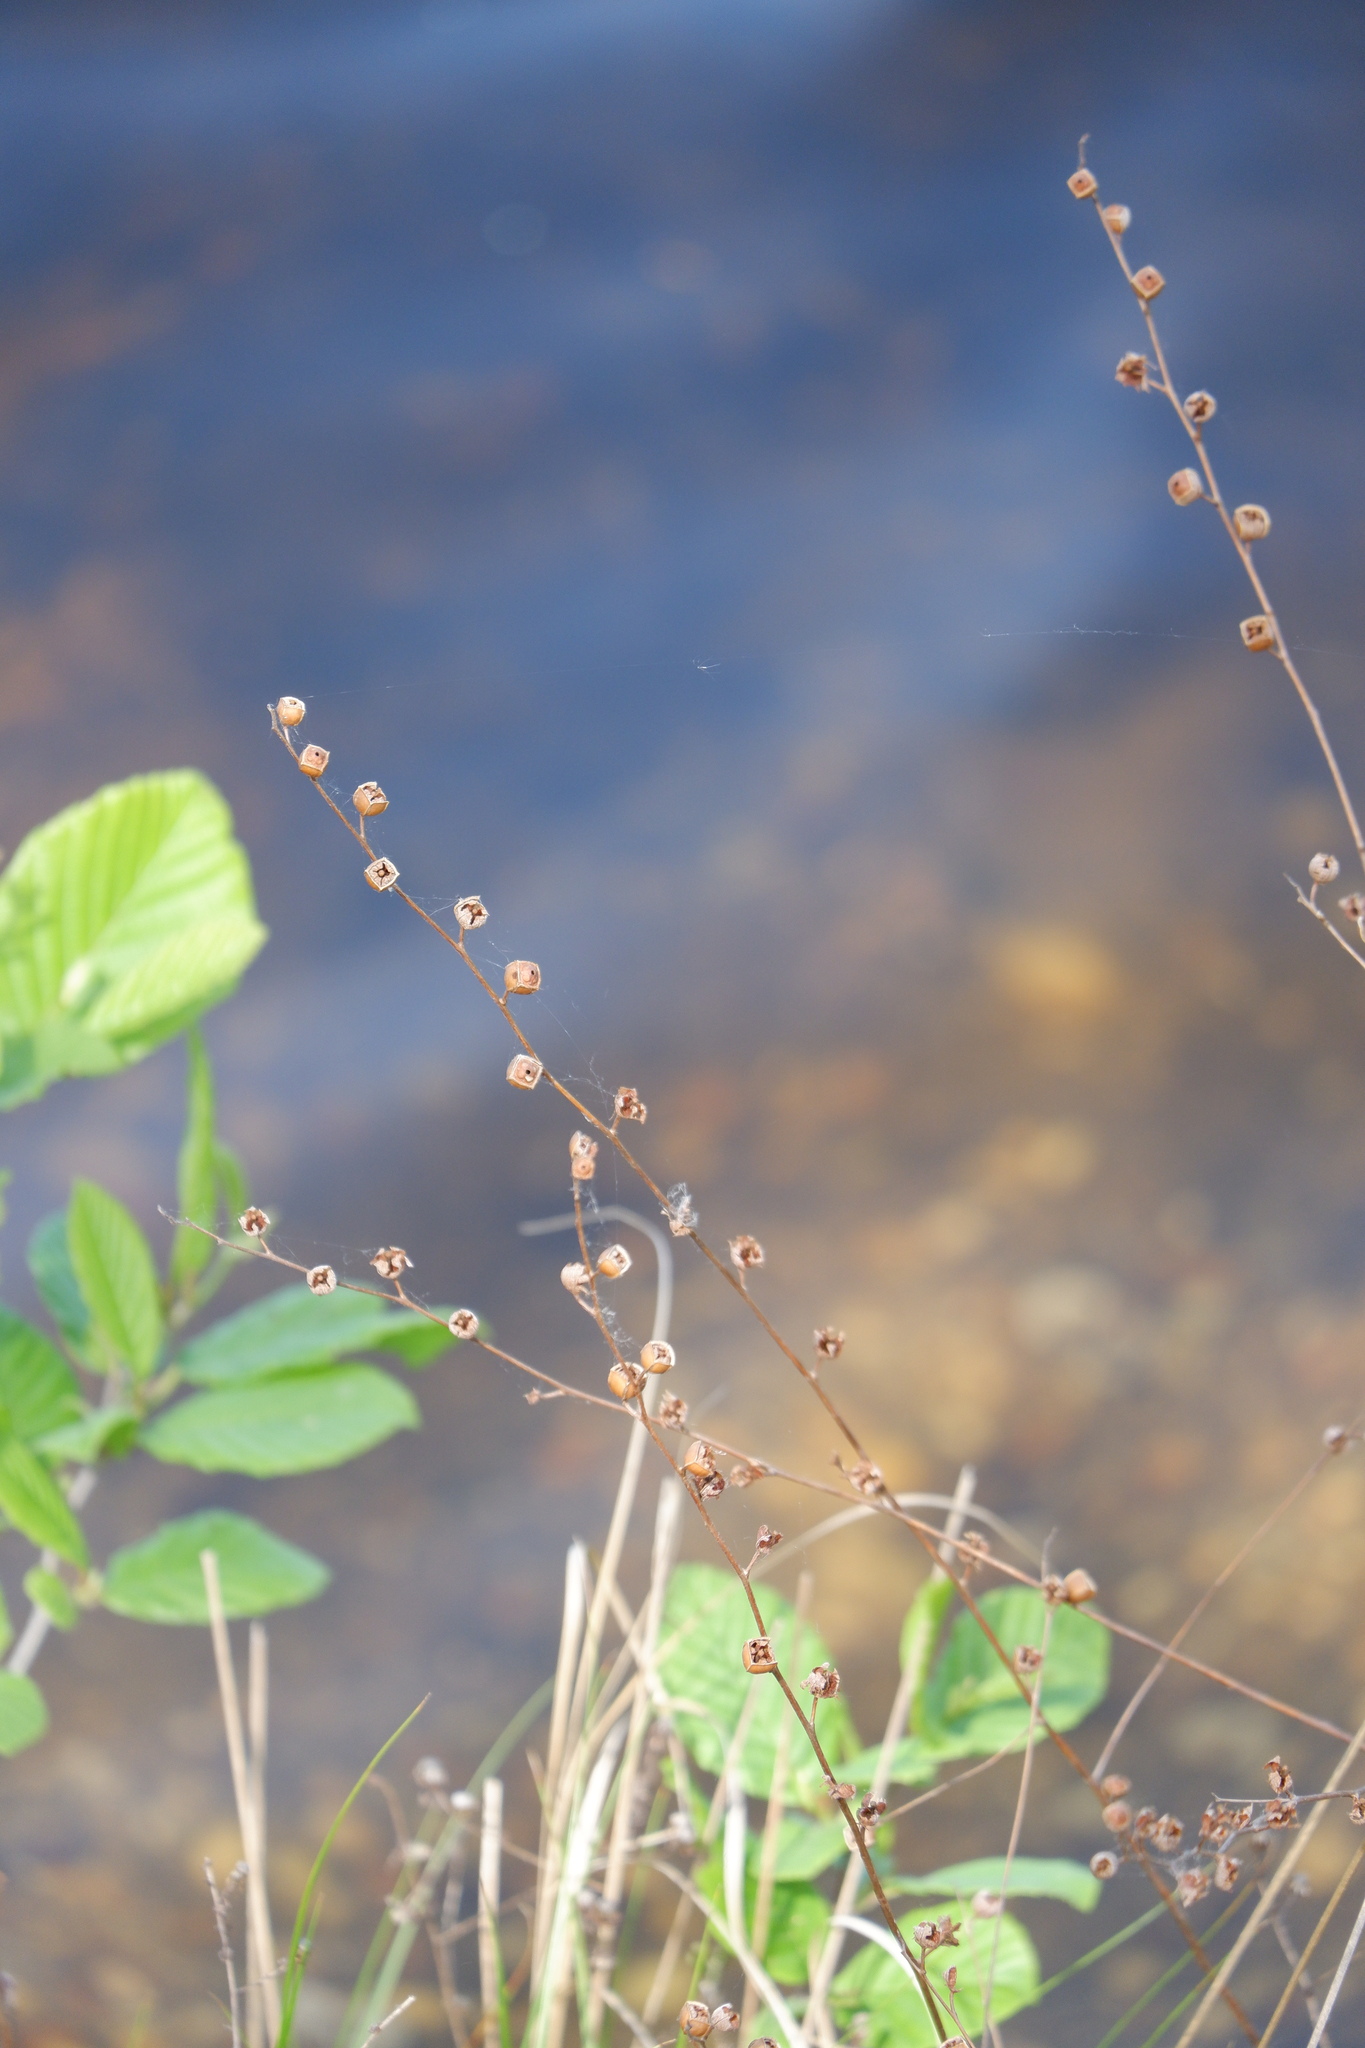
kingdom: Plantae
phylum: Tracheophyta
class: Magnoliopsida
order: Myrtales
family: Onagraceae
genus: Ludwigia
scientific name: Ludwigia alternifolia
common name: Rattlebox
